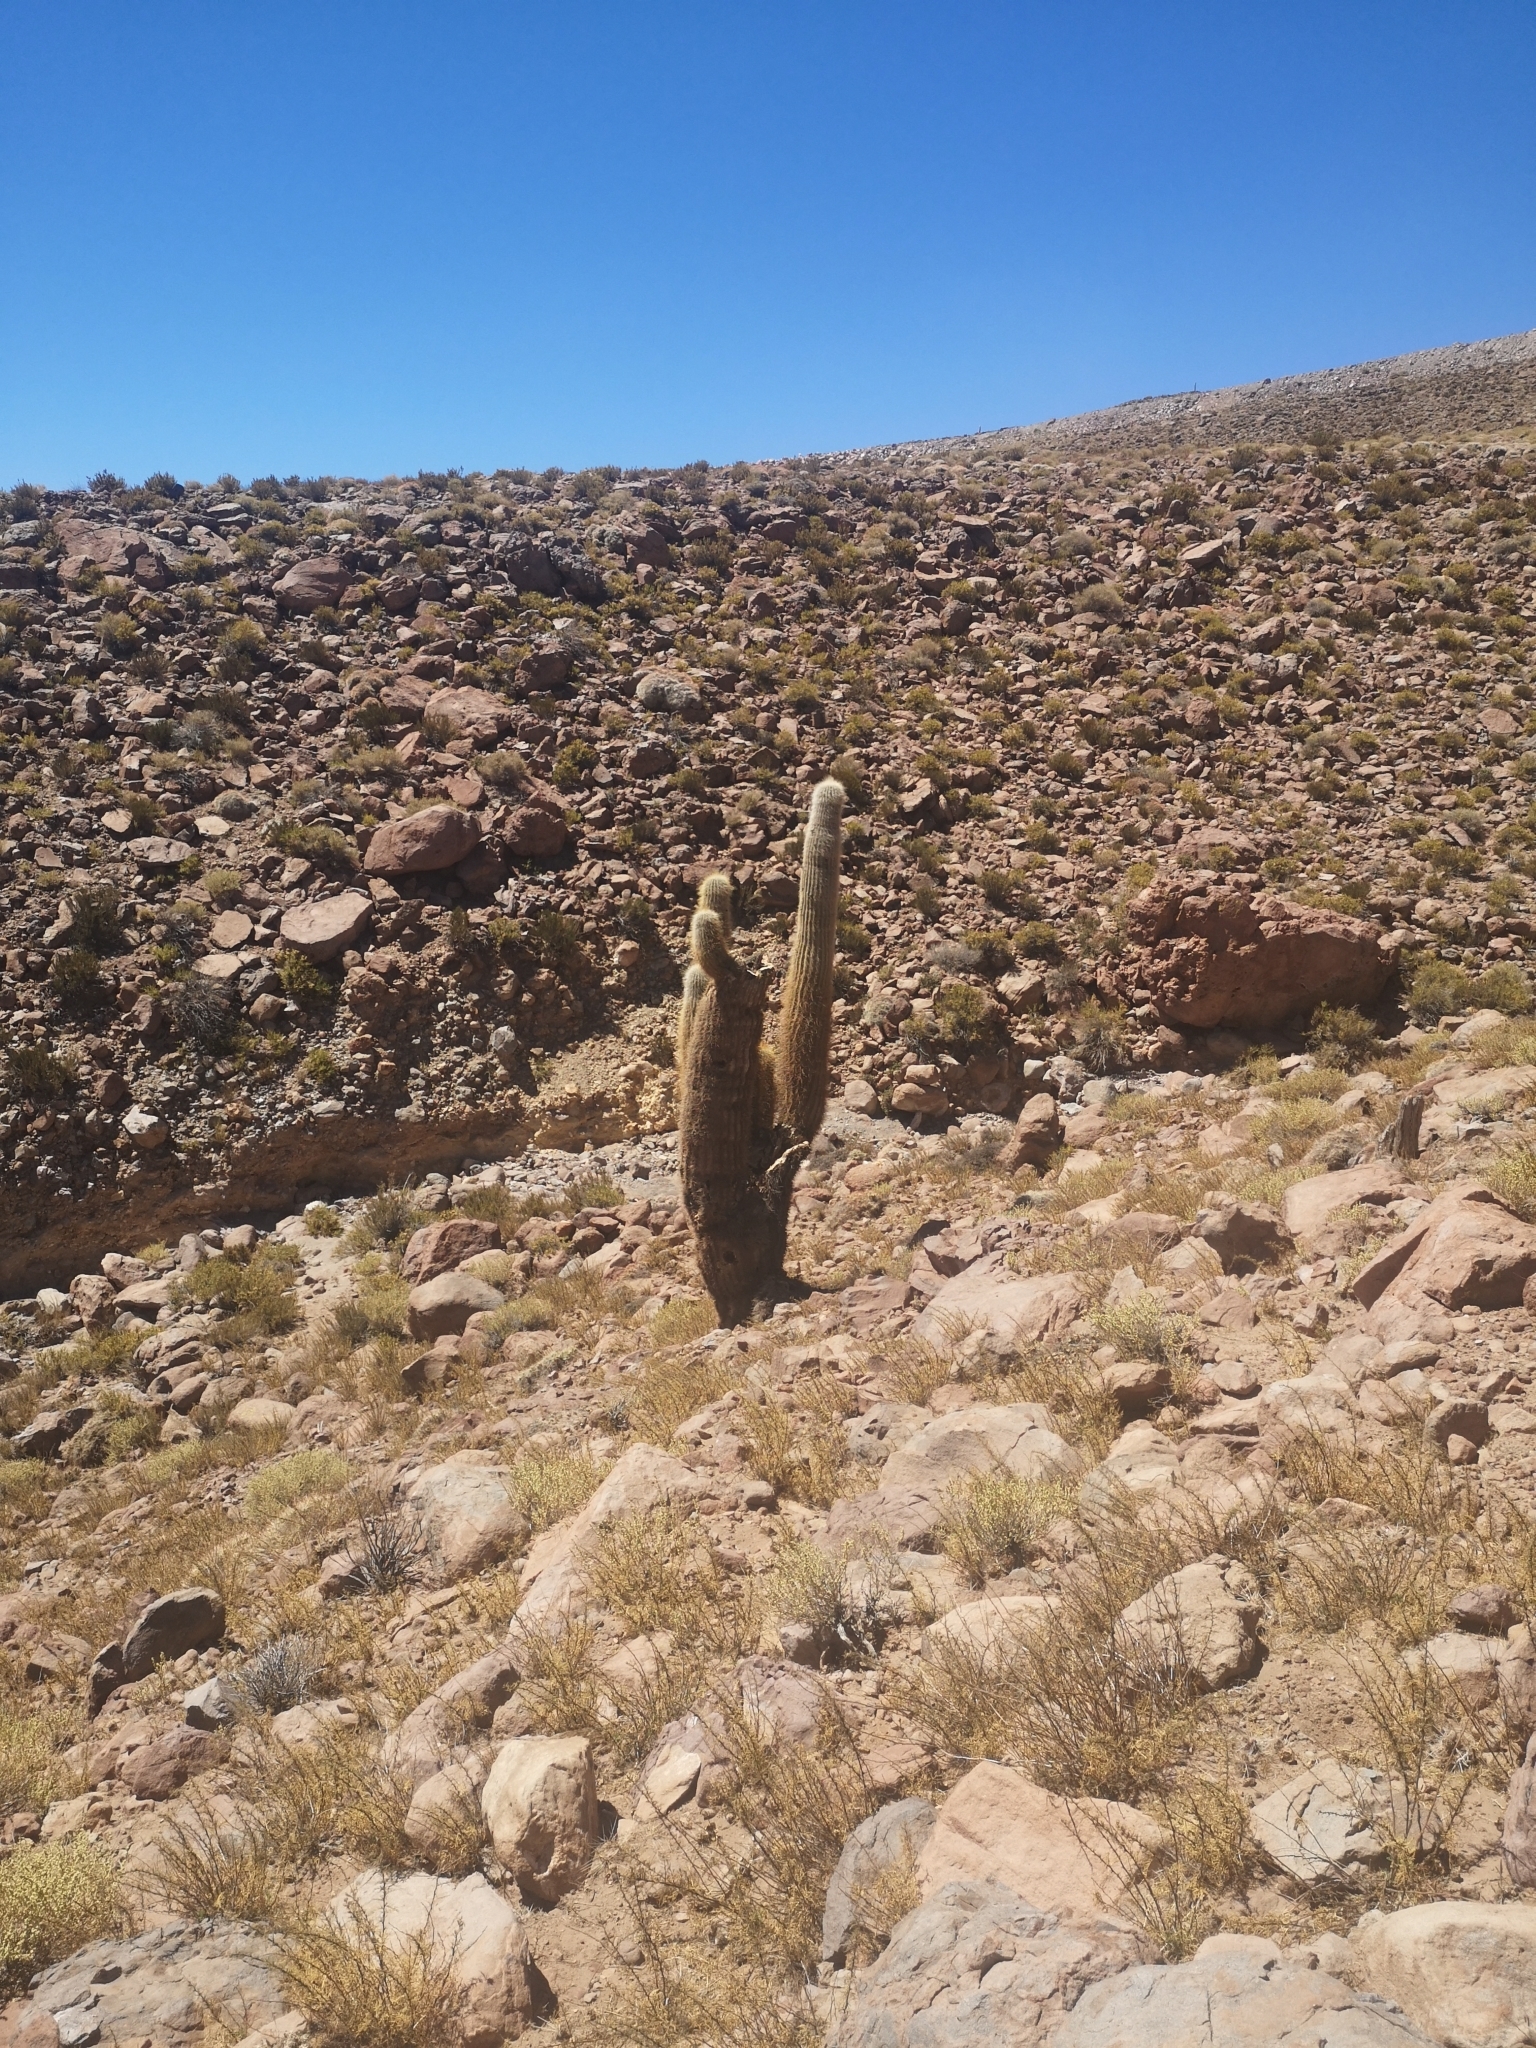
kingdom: Plantae
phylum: Tracheophyta
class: Magnoliopsida
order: Caryophyllales
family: Cactaceae
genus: Leucostele
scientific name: Leucostele atacamensis
